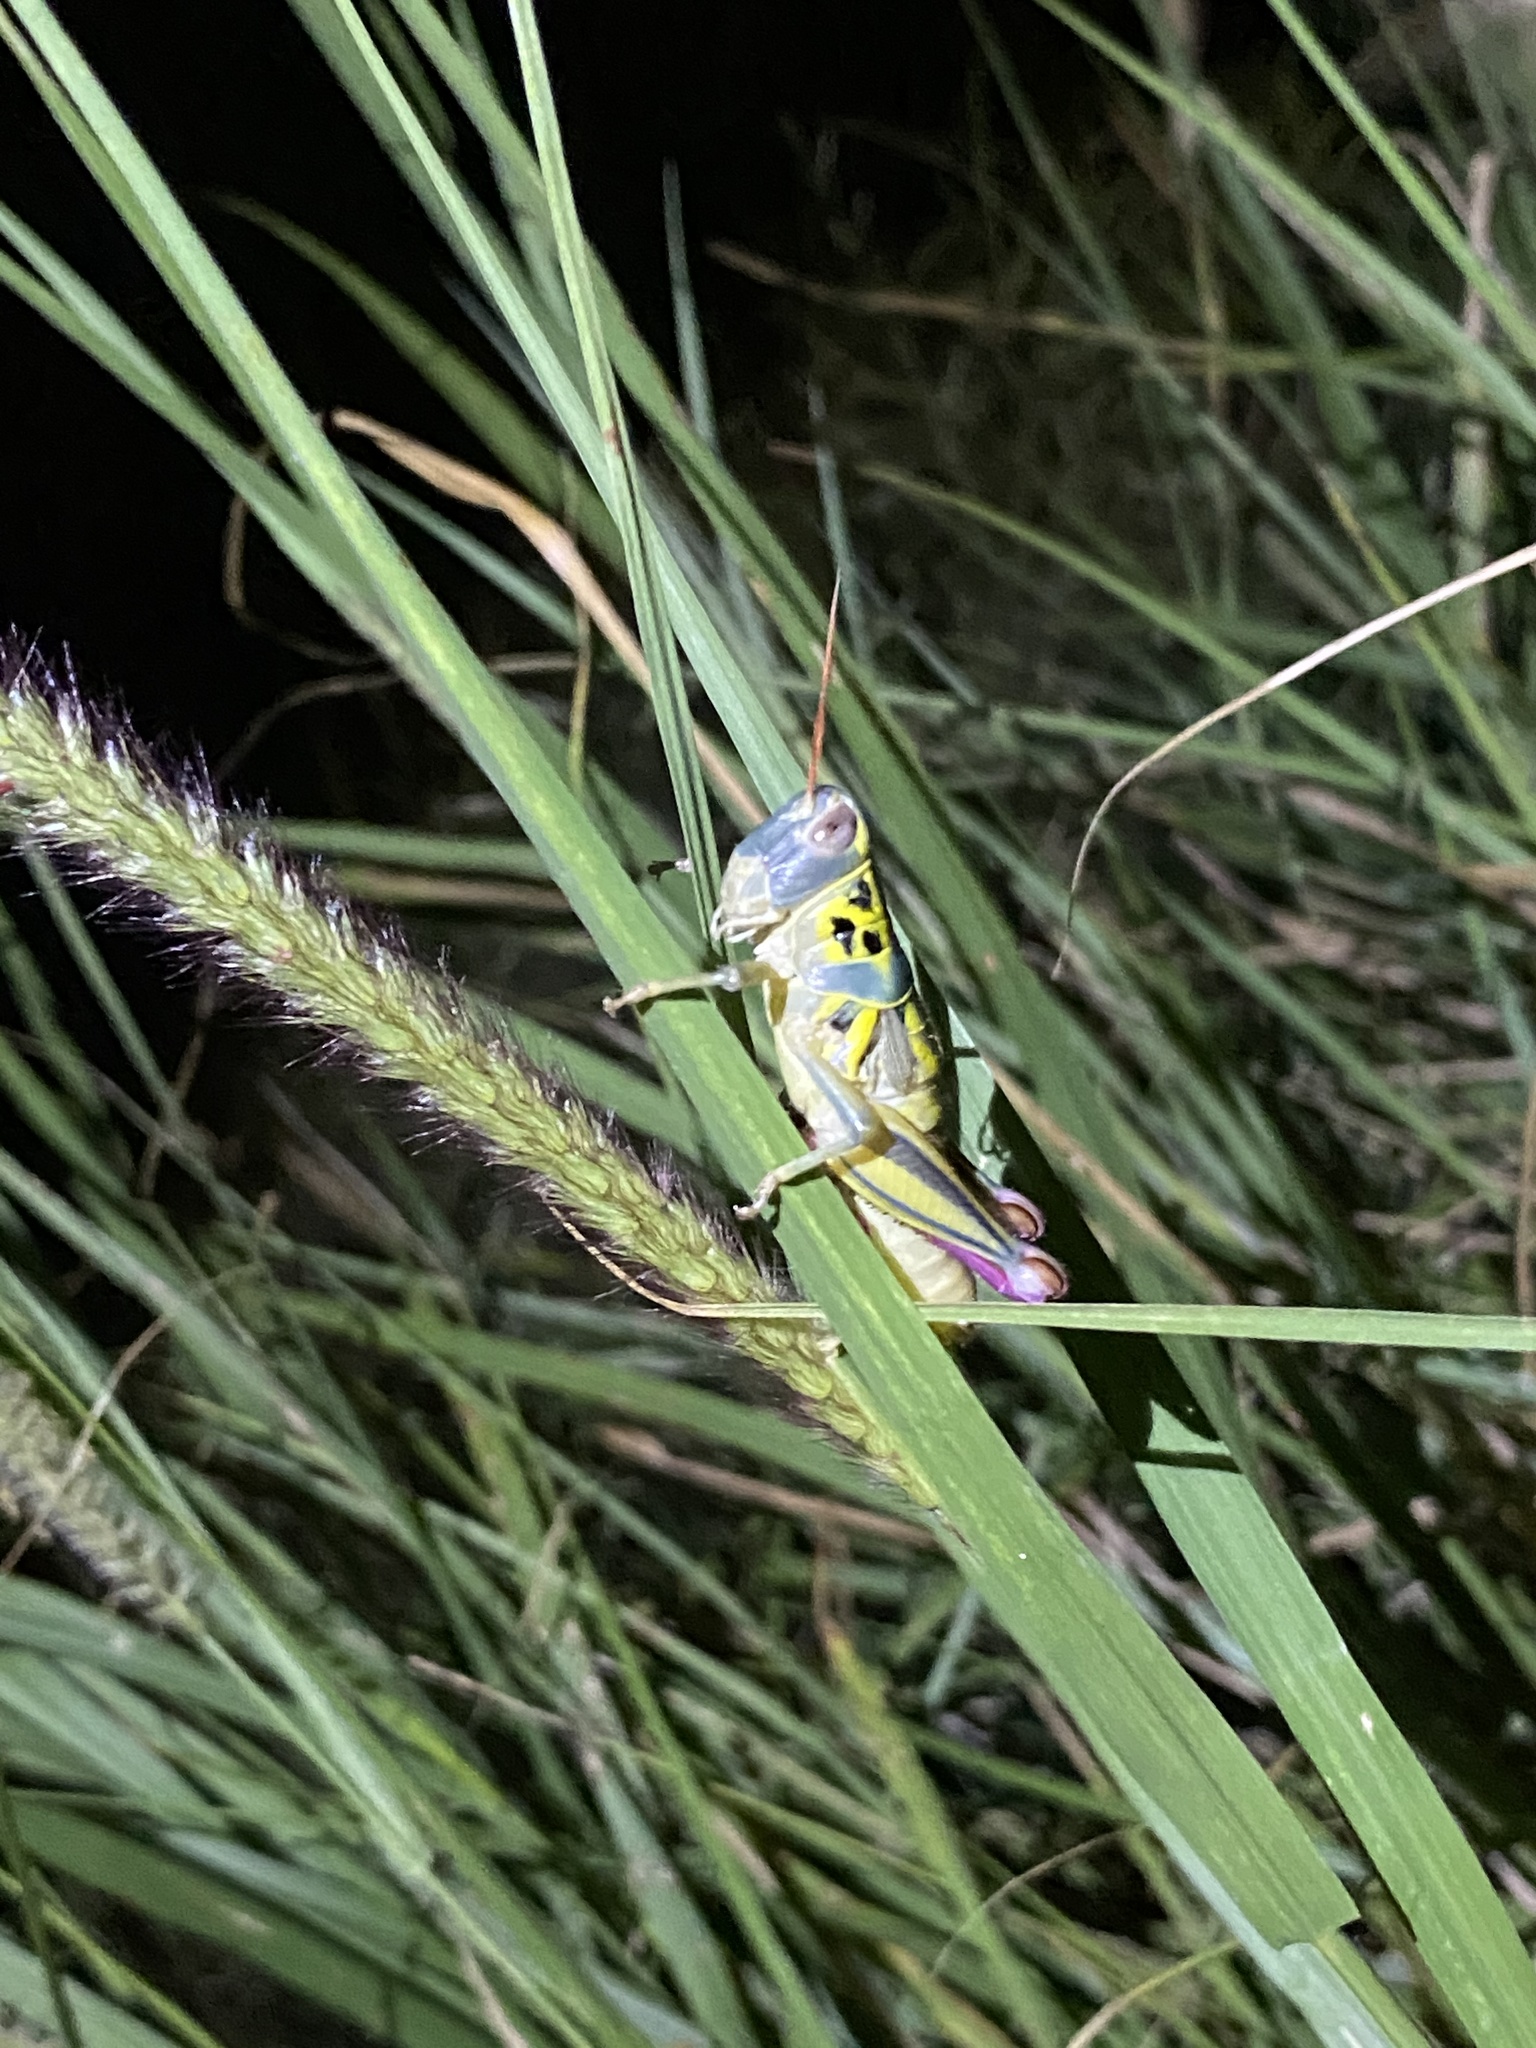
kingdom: Animalia
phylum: Arthropoda
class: Insecta
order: Orthoptera
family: Acrididae
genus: Barytettix
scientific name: Barytettix humphreysii
